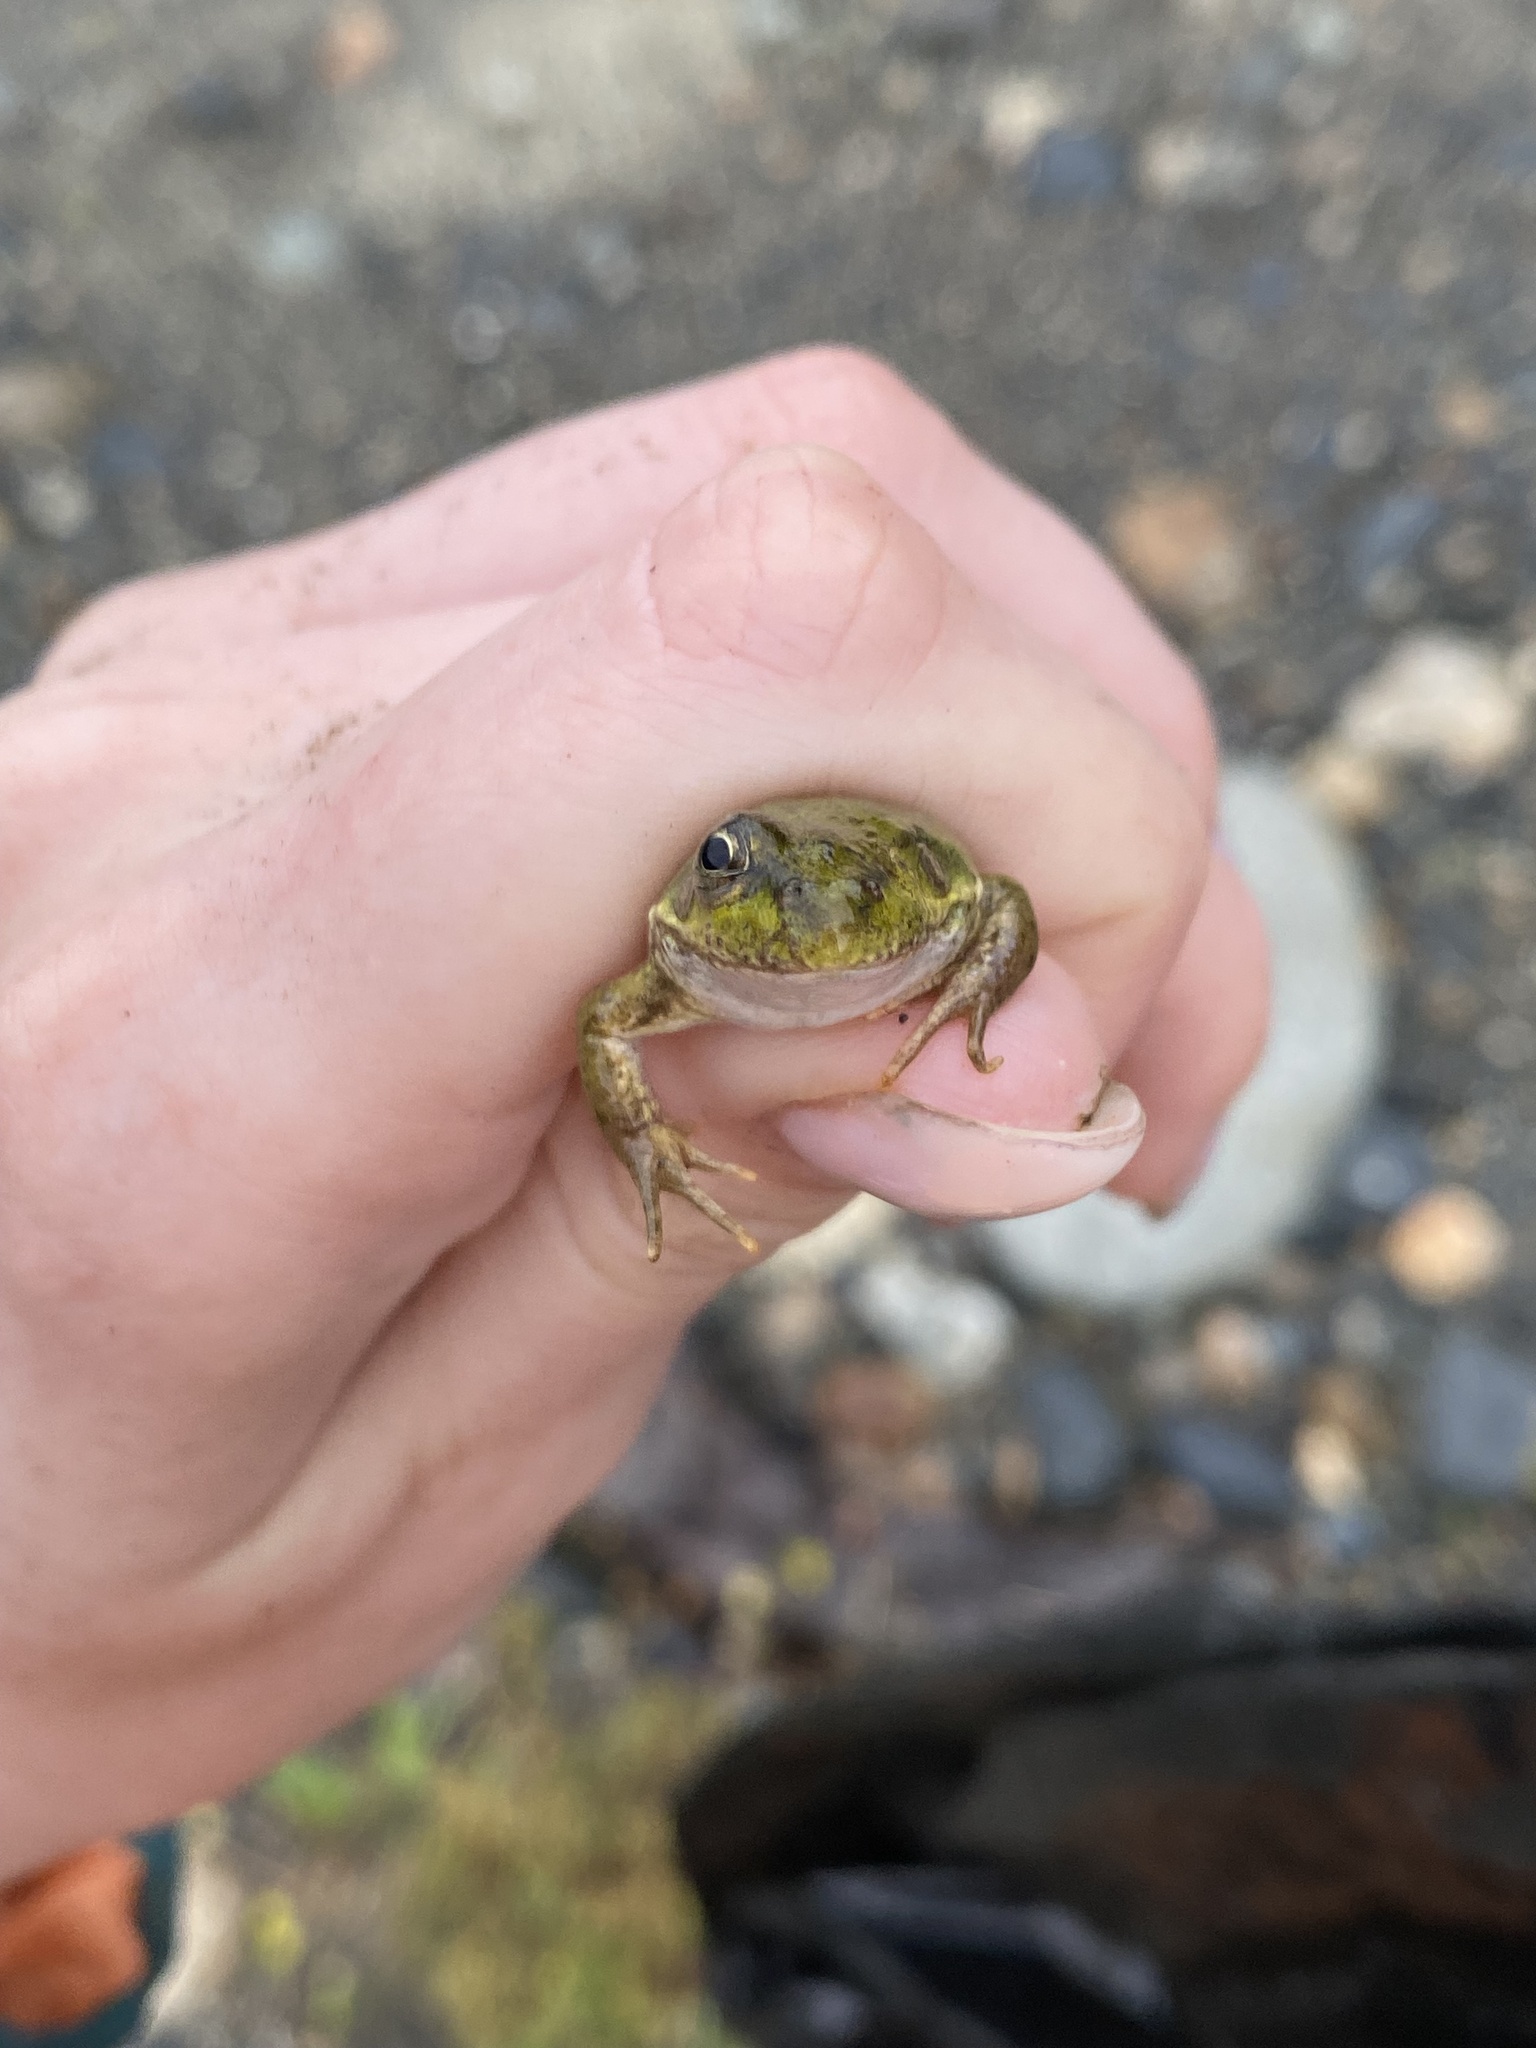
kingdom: Animalia
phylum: Chordata
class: Amphibia
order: Anura
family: Ranidae
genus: Pelophylax
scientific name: Pelophylax ridibundus
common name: Marsh frog
